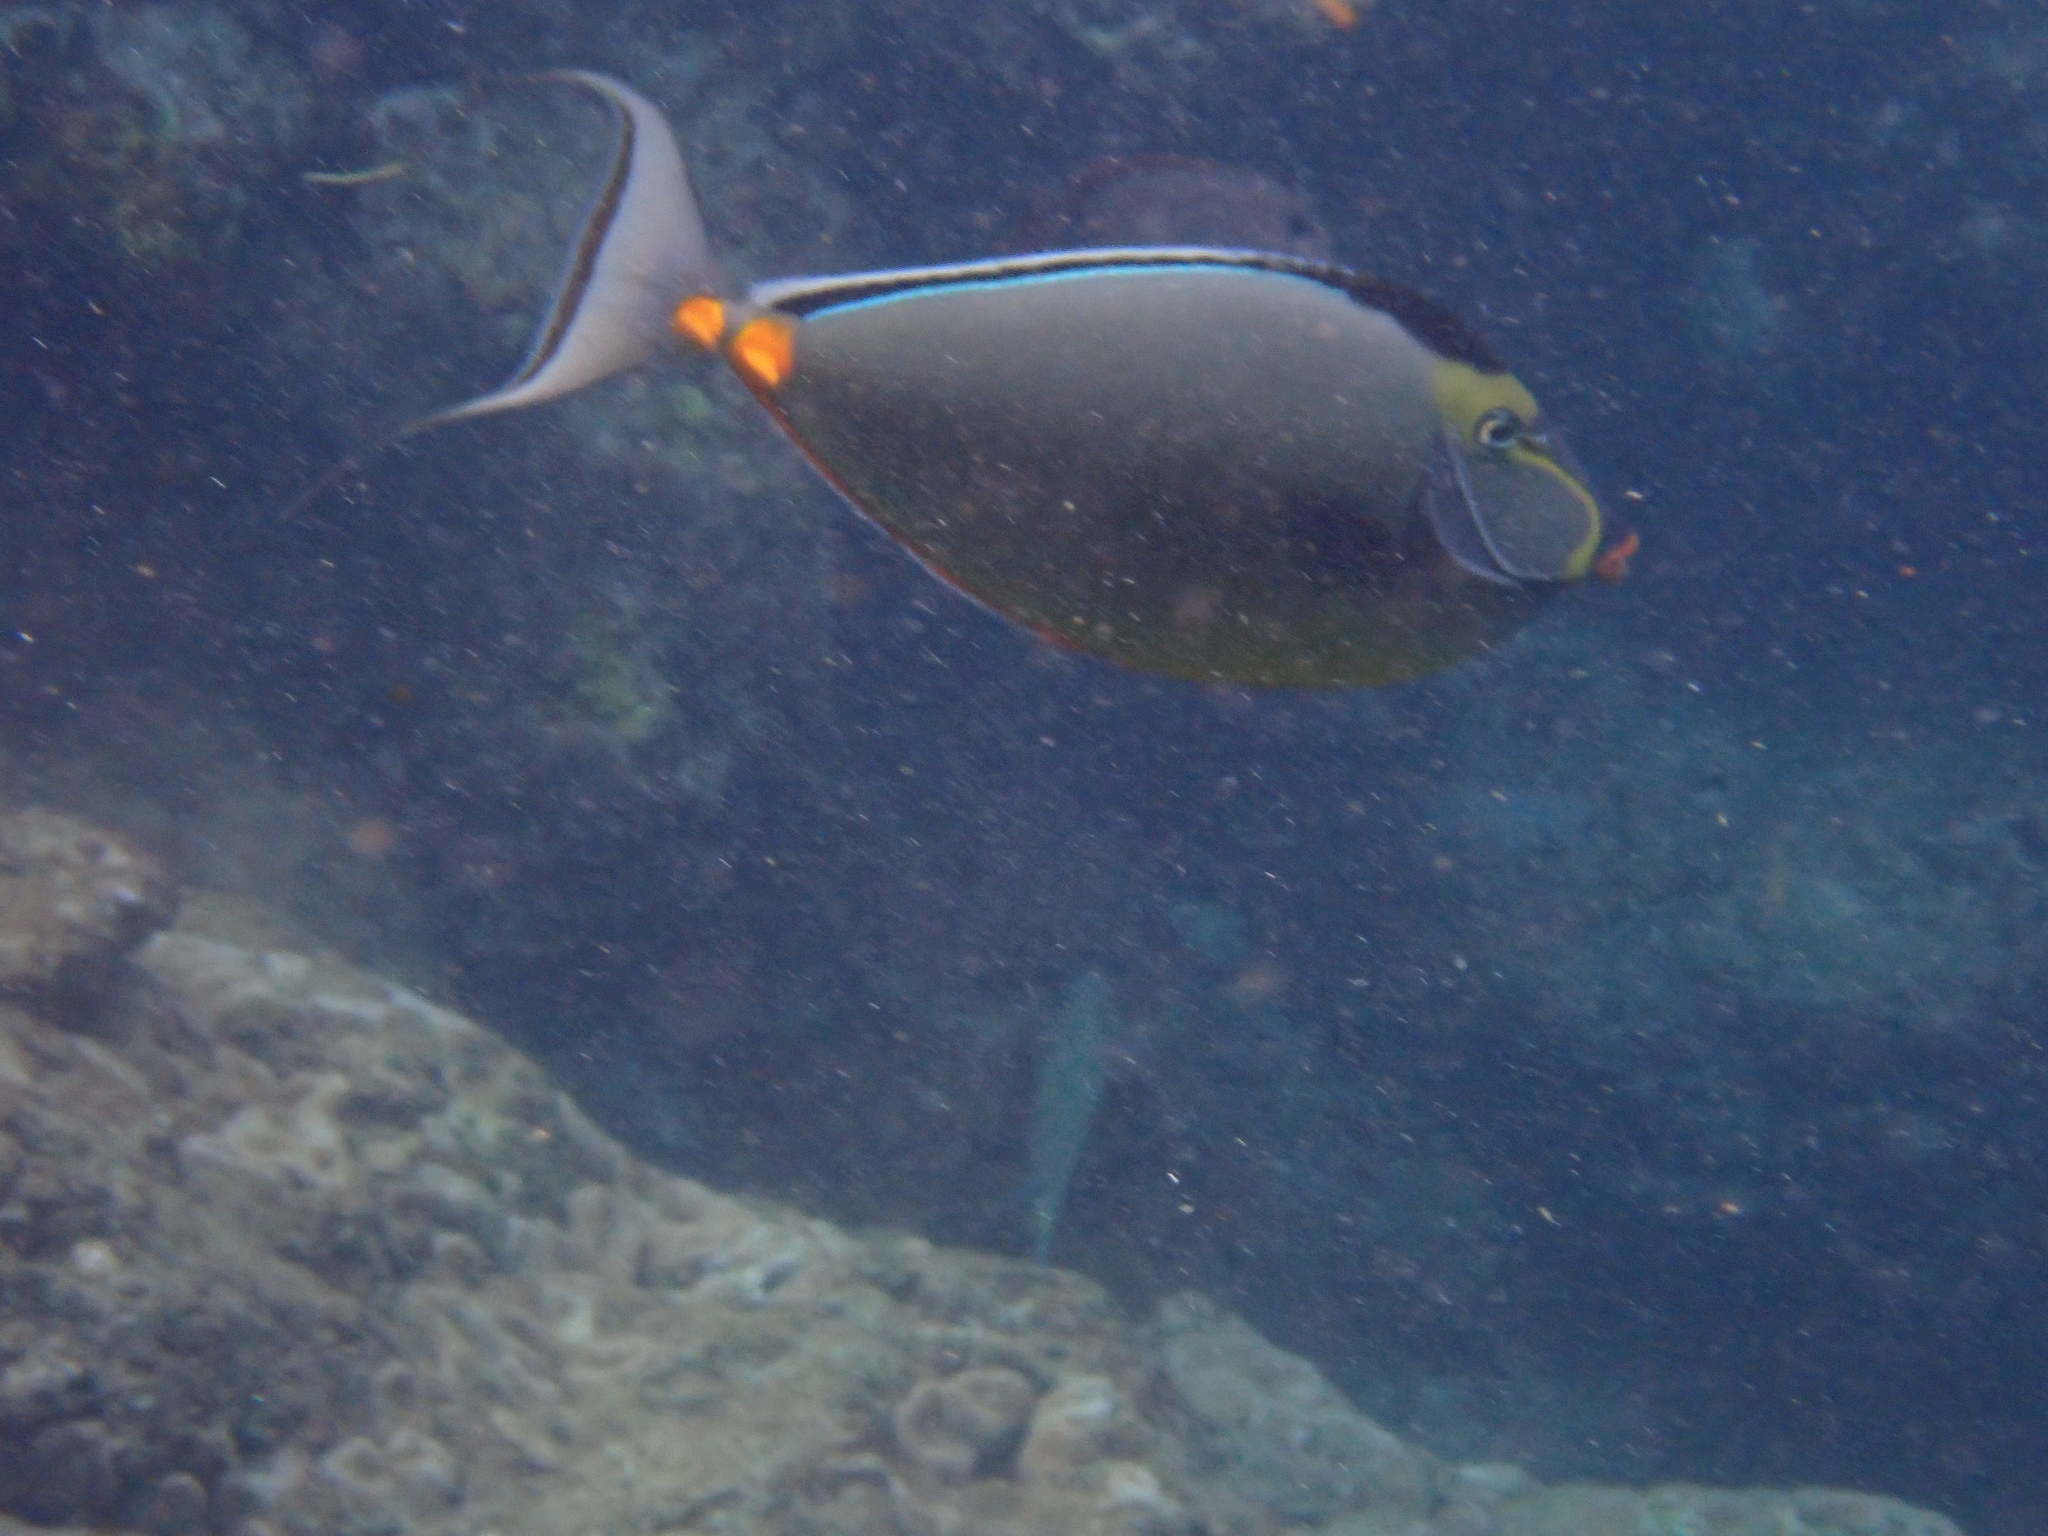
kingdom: Animalia
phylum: Chordata
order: Perciformes
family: Acanthuridae
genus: Naso
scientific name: Naso lituratus
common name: Orangespine unicornfish
